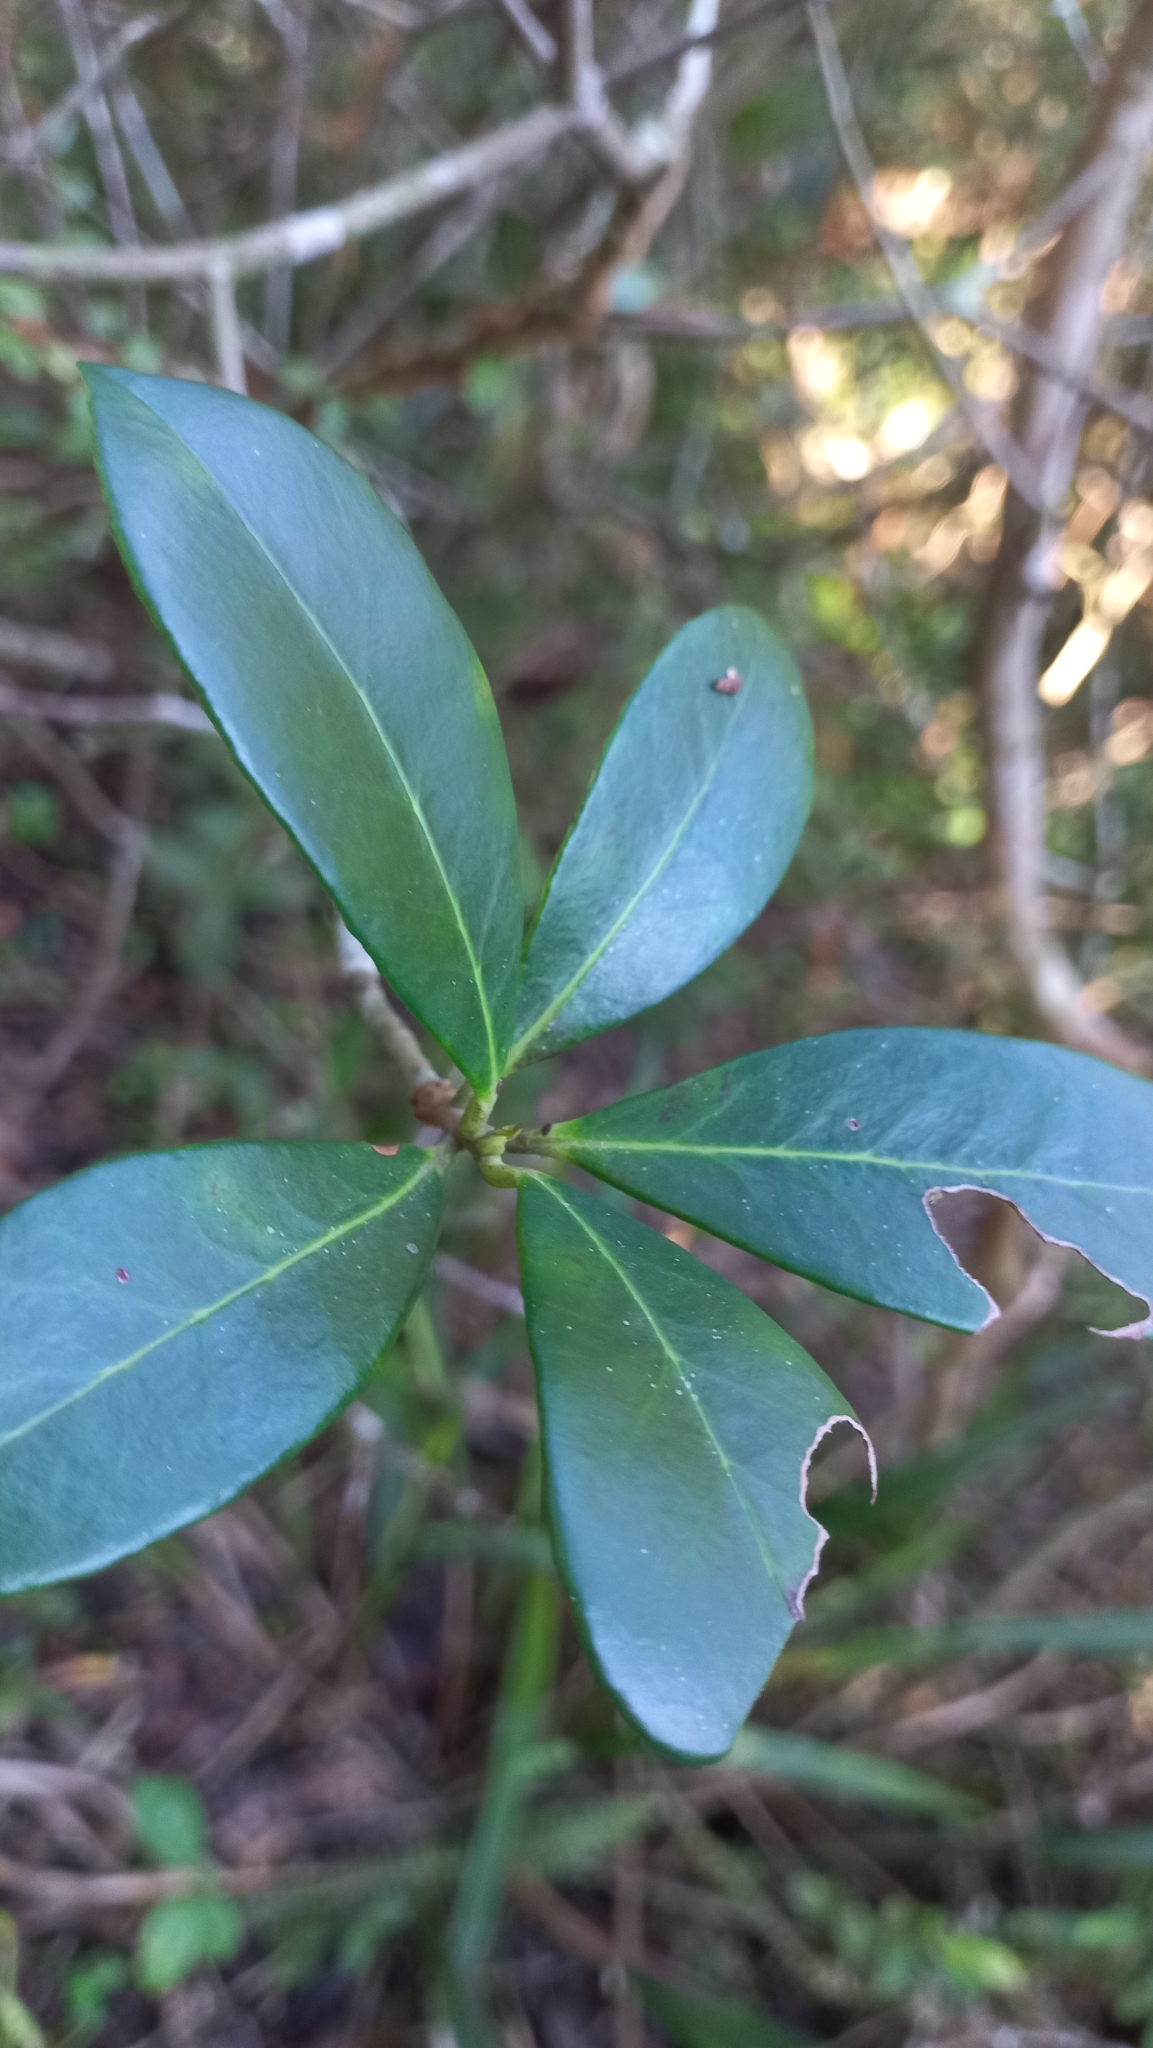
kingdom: Plantae
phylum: Tracheophyta
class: Magnoliopsida
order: Ericales
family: Pentaphylacaceae
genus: Ternstroemia
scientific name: Ternstroemia brasiliensis
